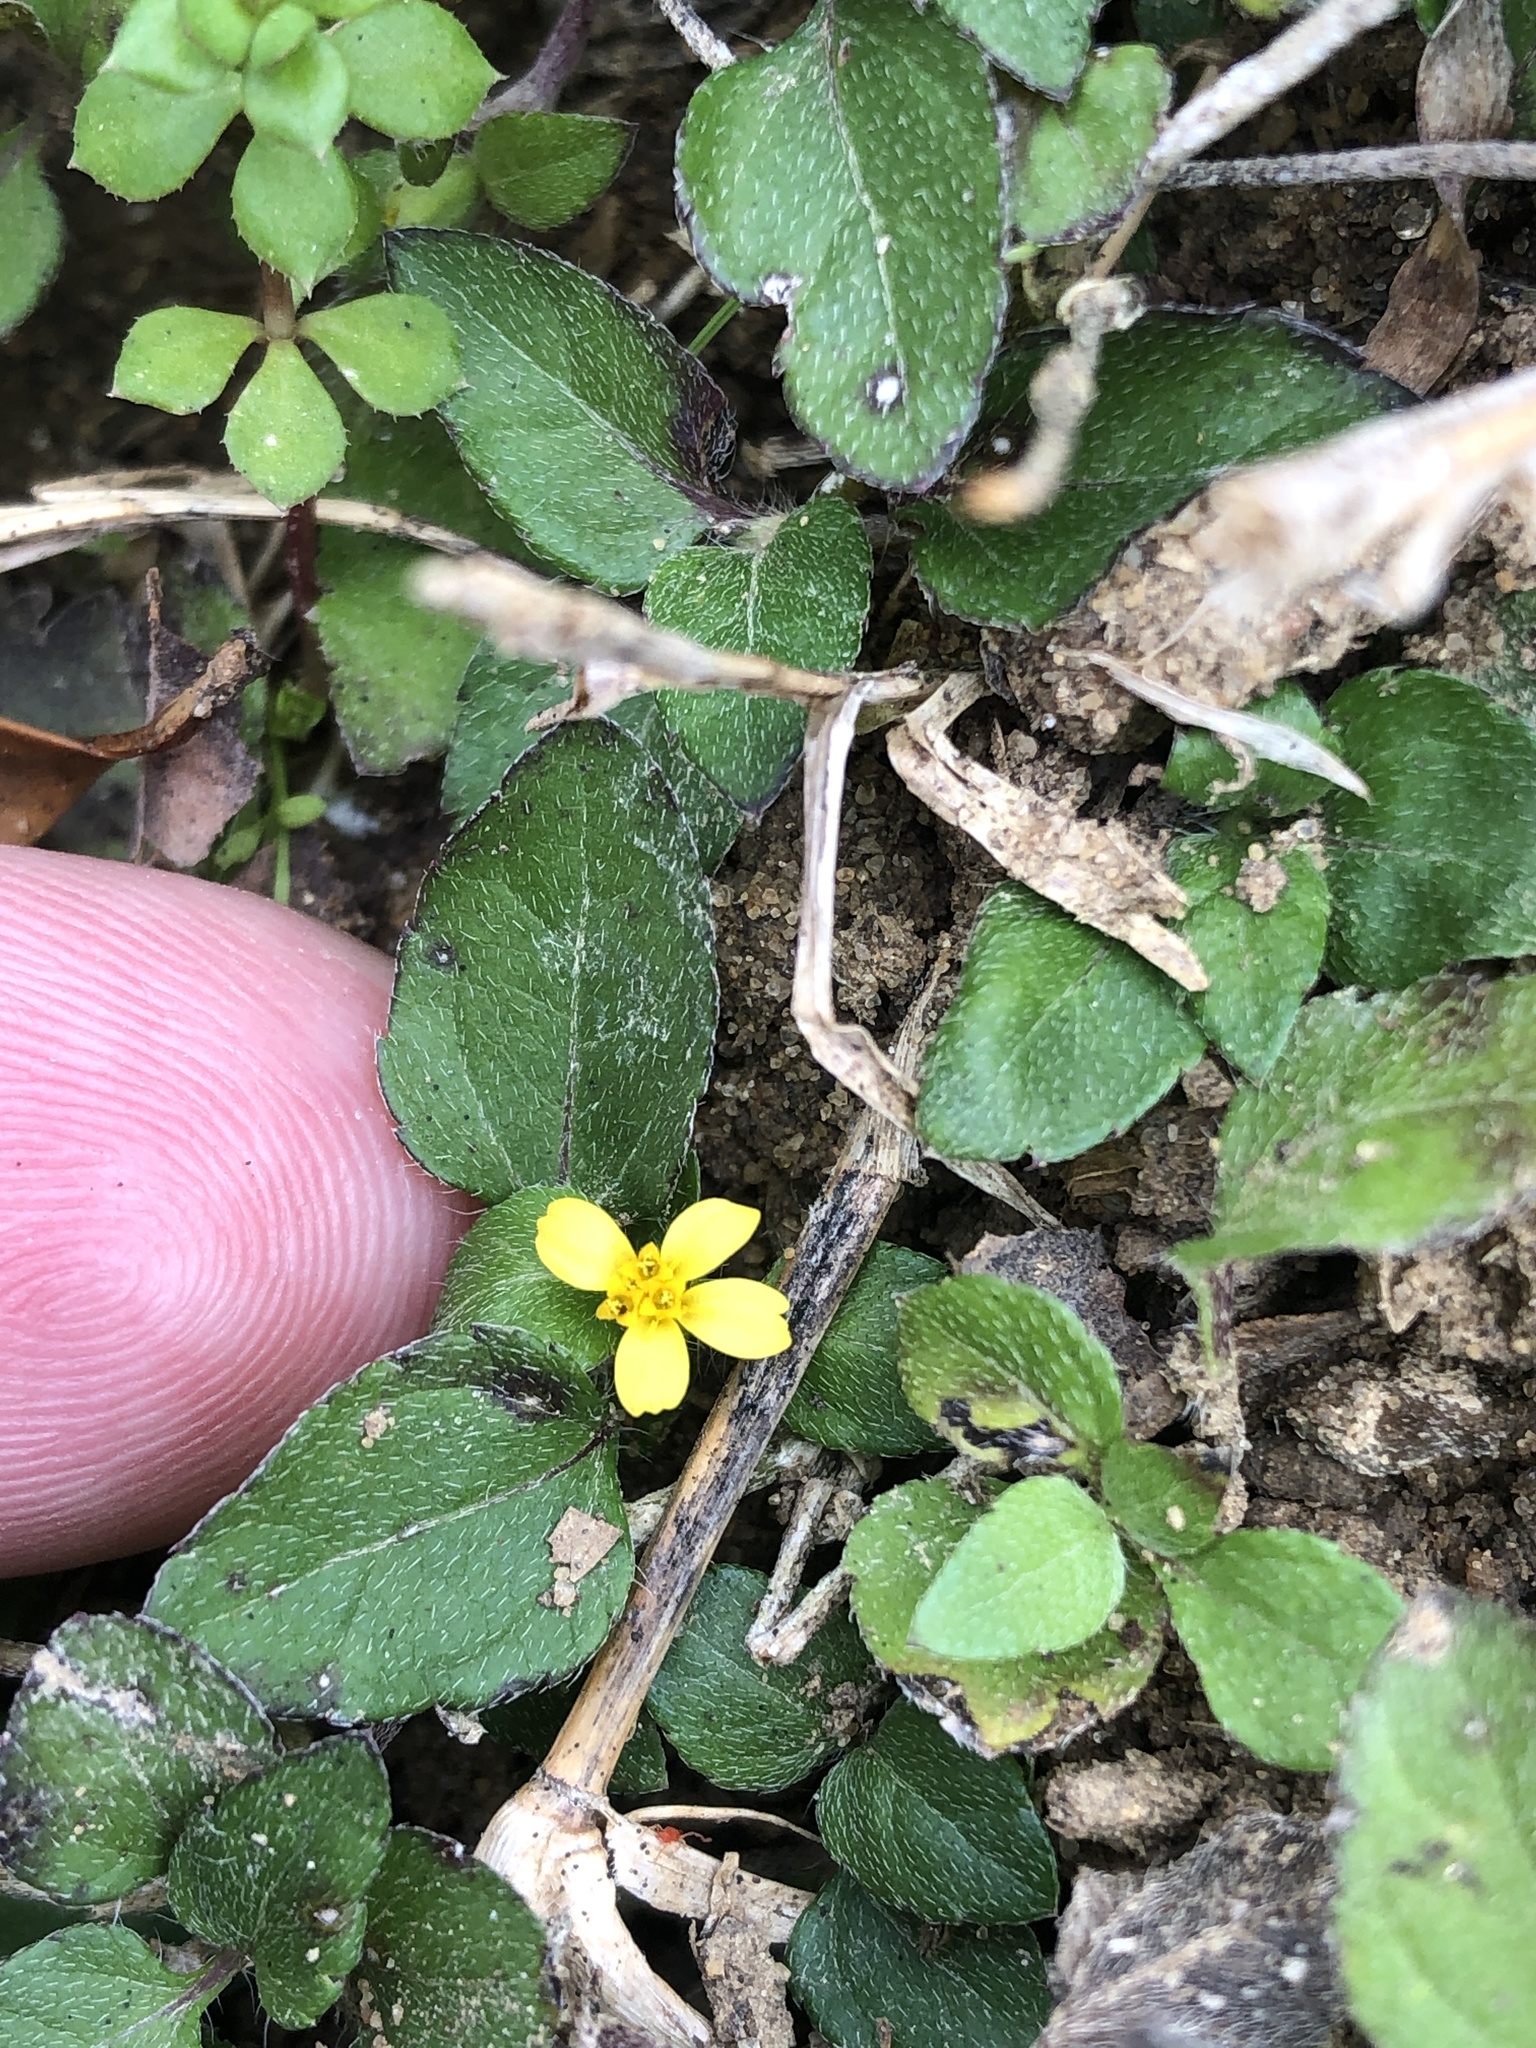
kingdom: Plantae
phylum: Tracheophyta
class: Magnoliopsida
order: Asterales
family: Asteraceae
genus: Calyptocarpus
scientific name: Calyptocarpus vialis
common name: Straggler daisy
